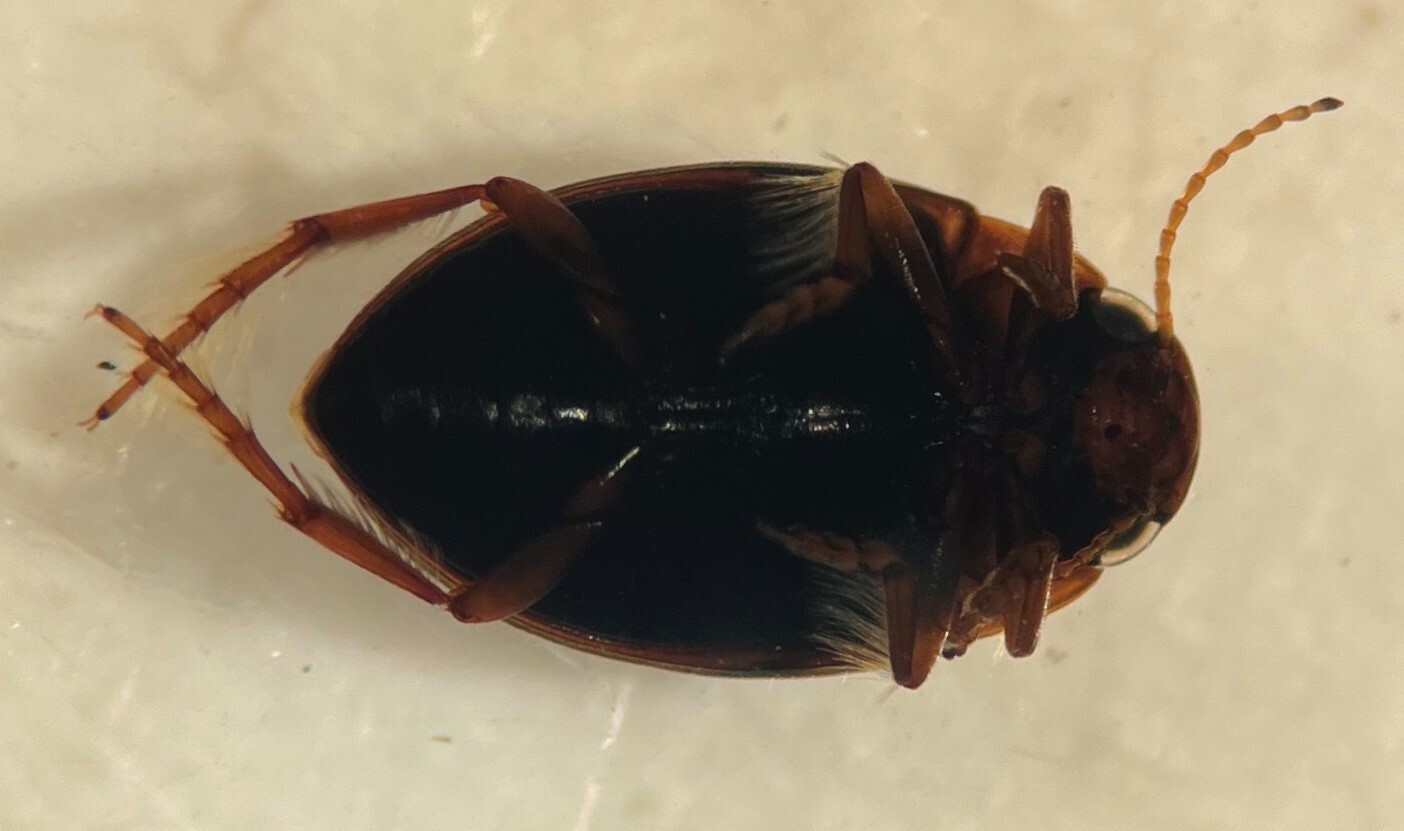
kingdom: Animalia
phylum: Arthropoda
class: Insecta
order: Coleoptera
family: Dytiscidae
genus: Clarkhydrus
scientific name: Clarkhydrus roffii
